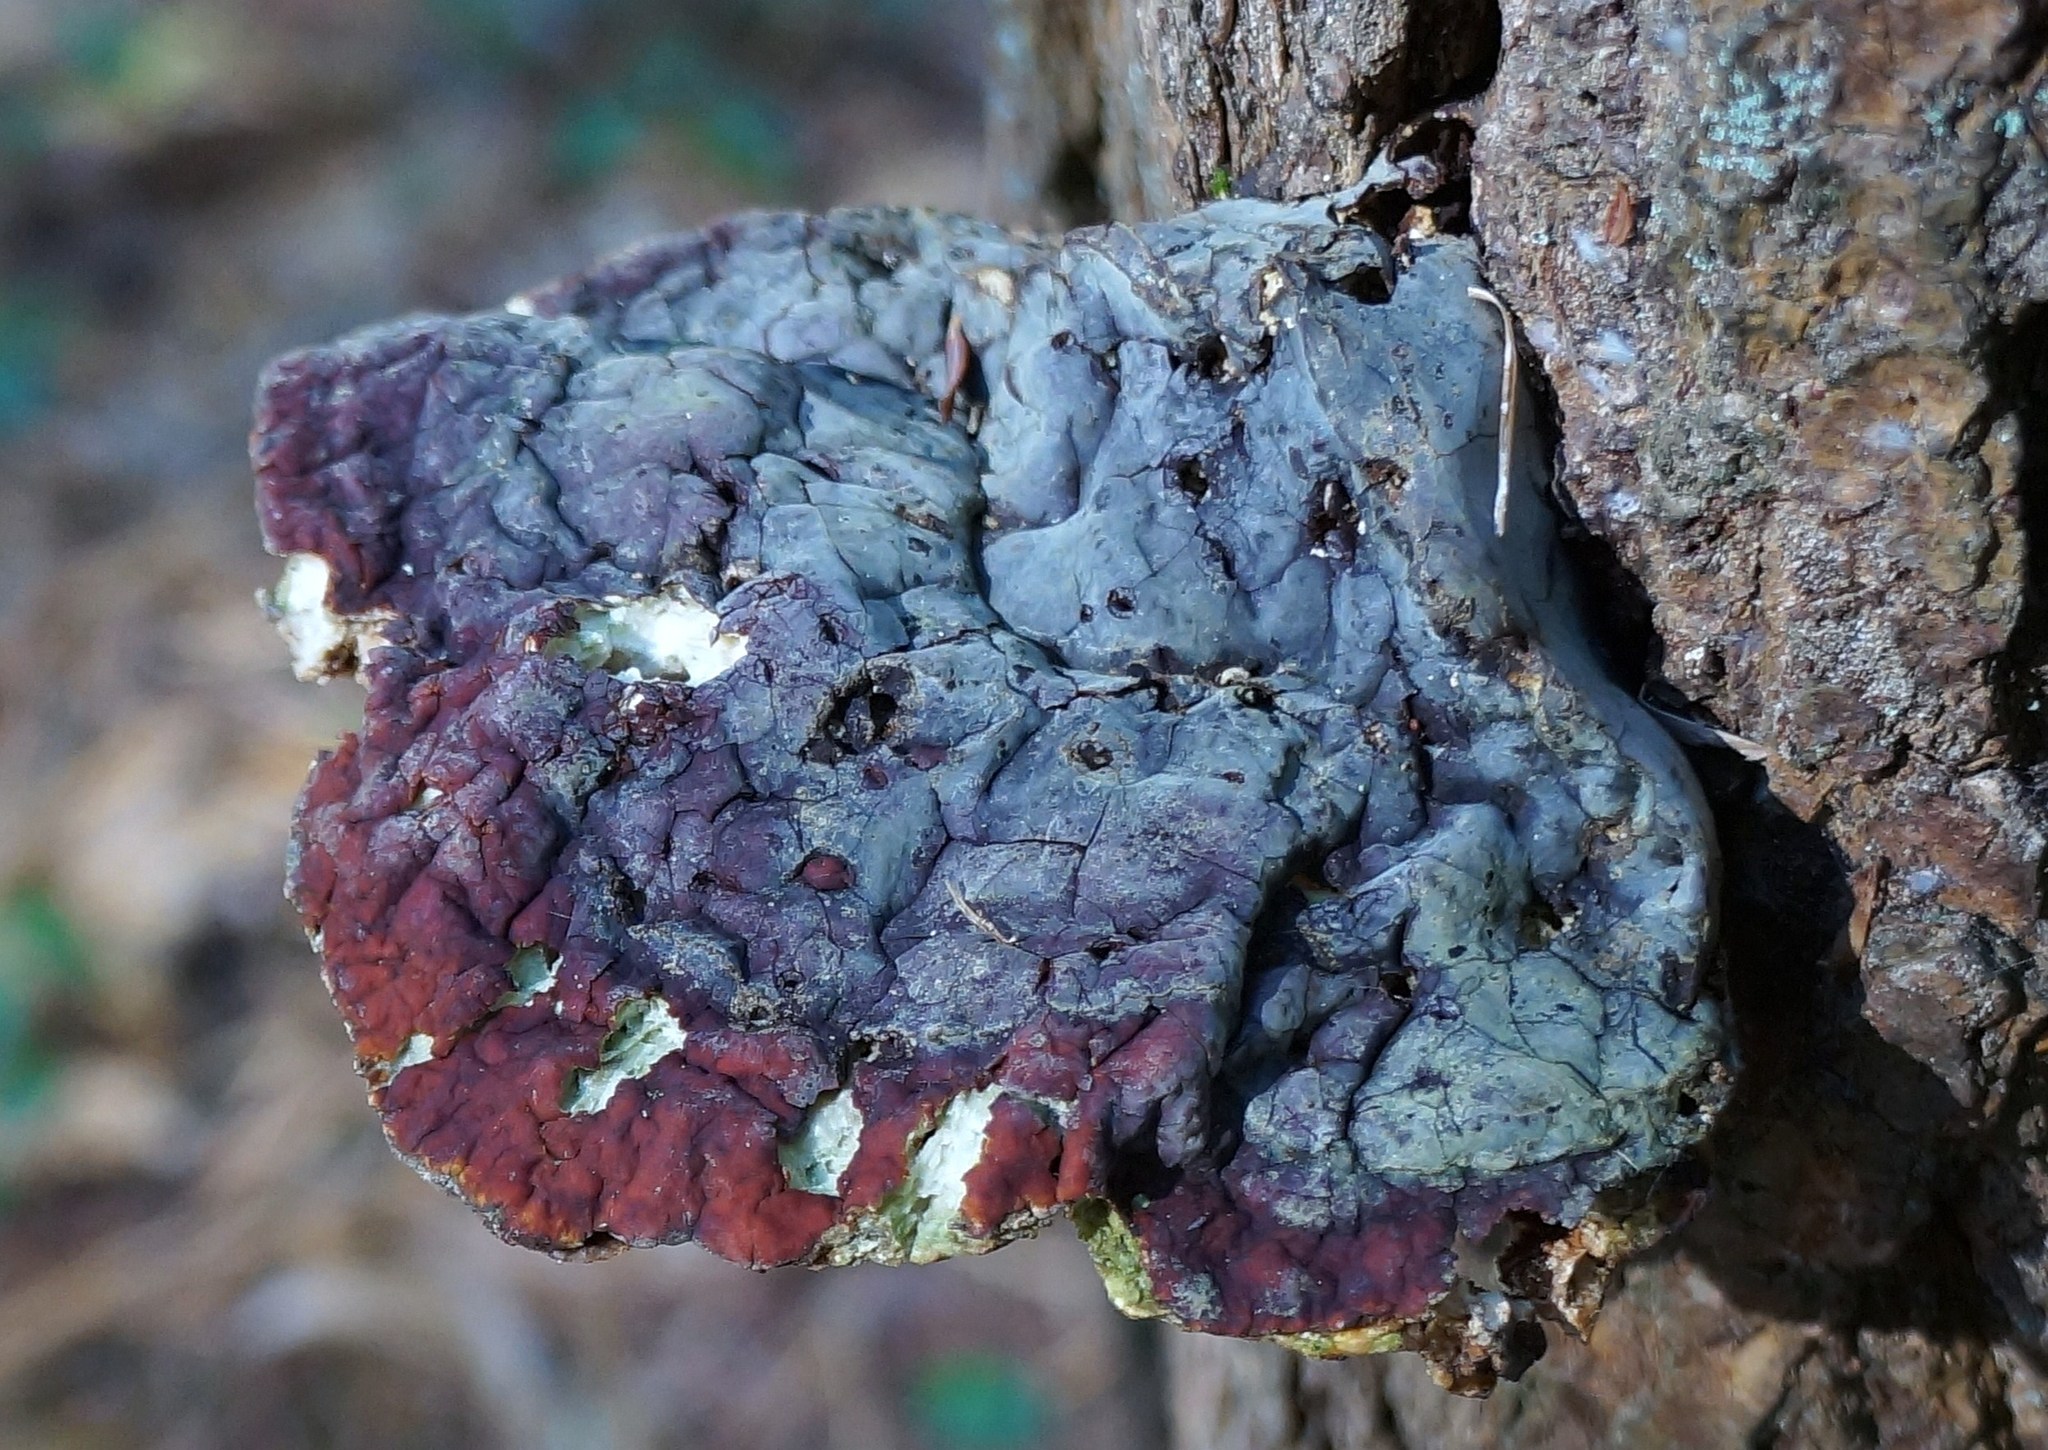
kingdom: Fungi
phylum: Basidiomycota
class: Agaricomycetes
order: Polyporales
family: Polyporaceae
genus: Ganoderma
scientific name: Ganoderma tsugae
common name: Hemlock varnish shelf
